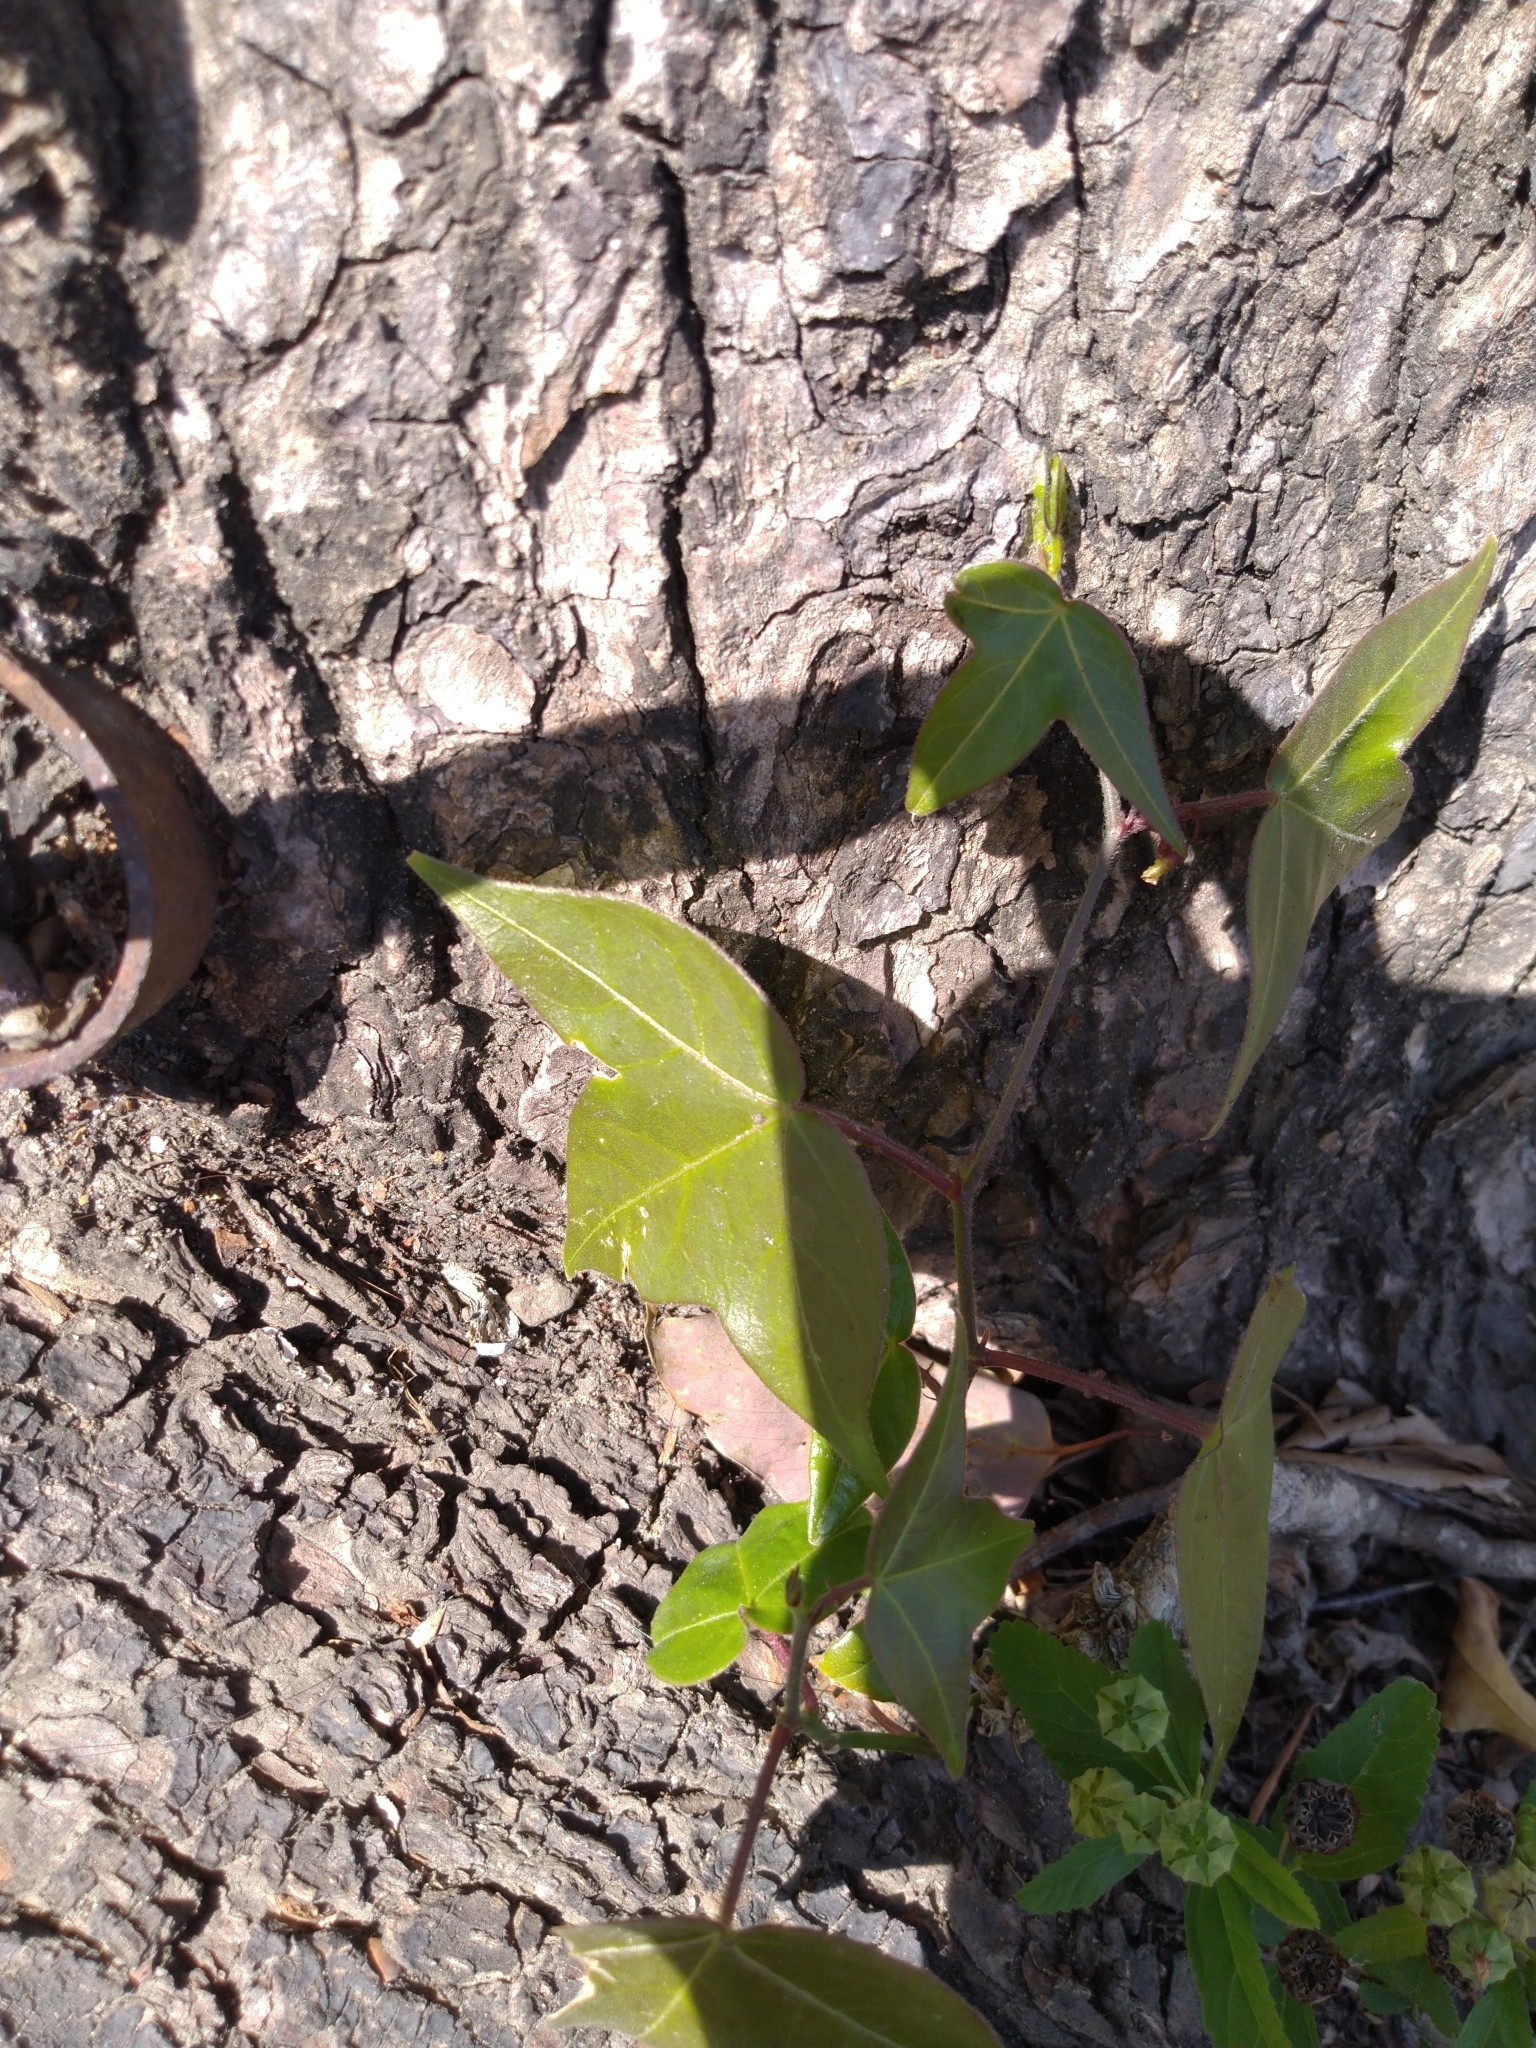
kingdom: Plantae
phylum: Tracheophyta
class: Magnoliopsida
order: Malpighiales
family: Passifloraceae
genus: Passiflora
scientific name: Passiflora suberosa
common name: Wild passionfruit
